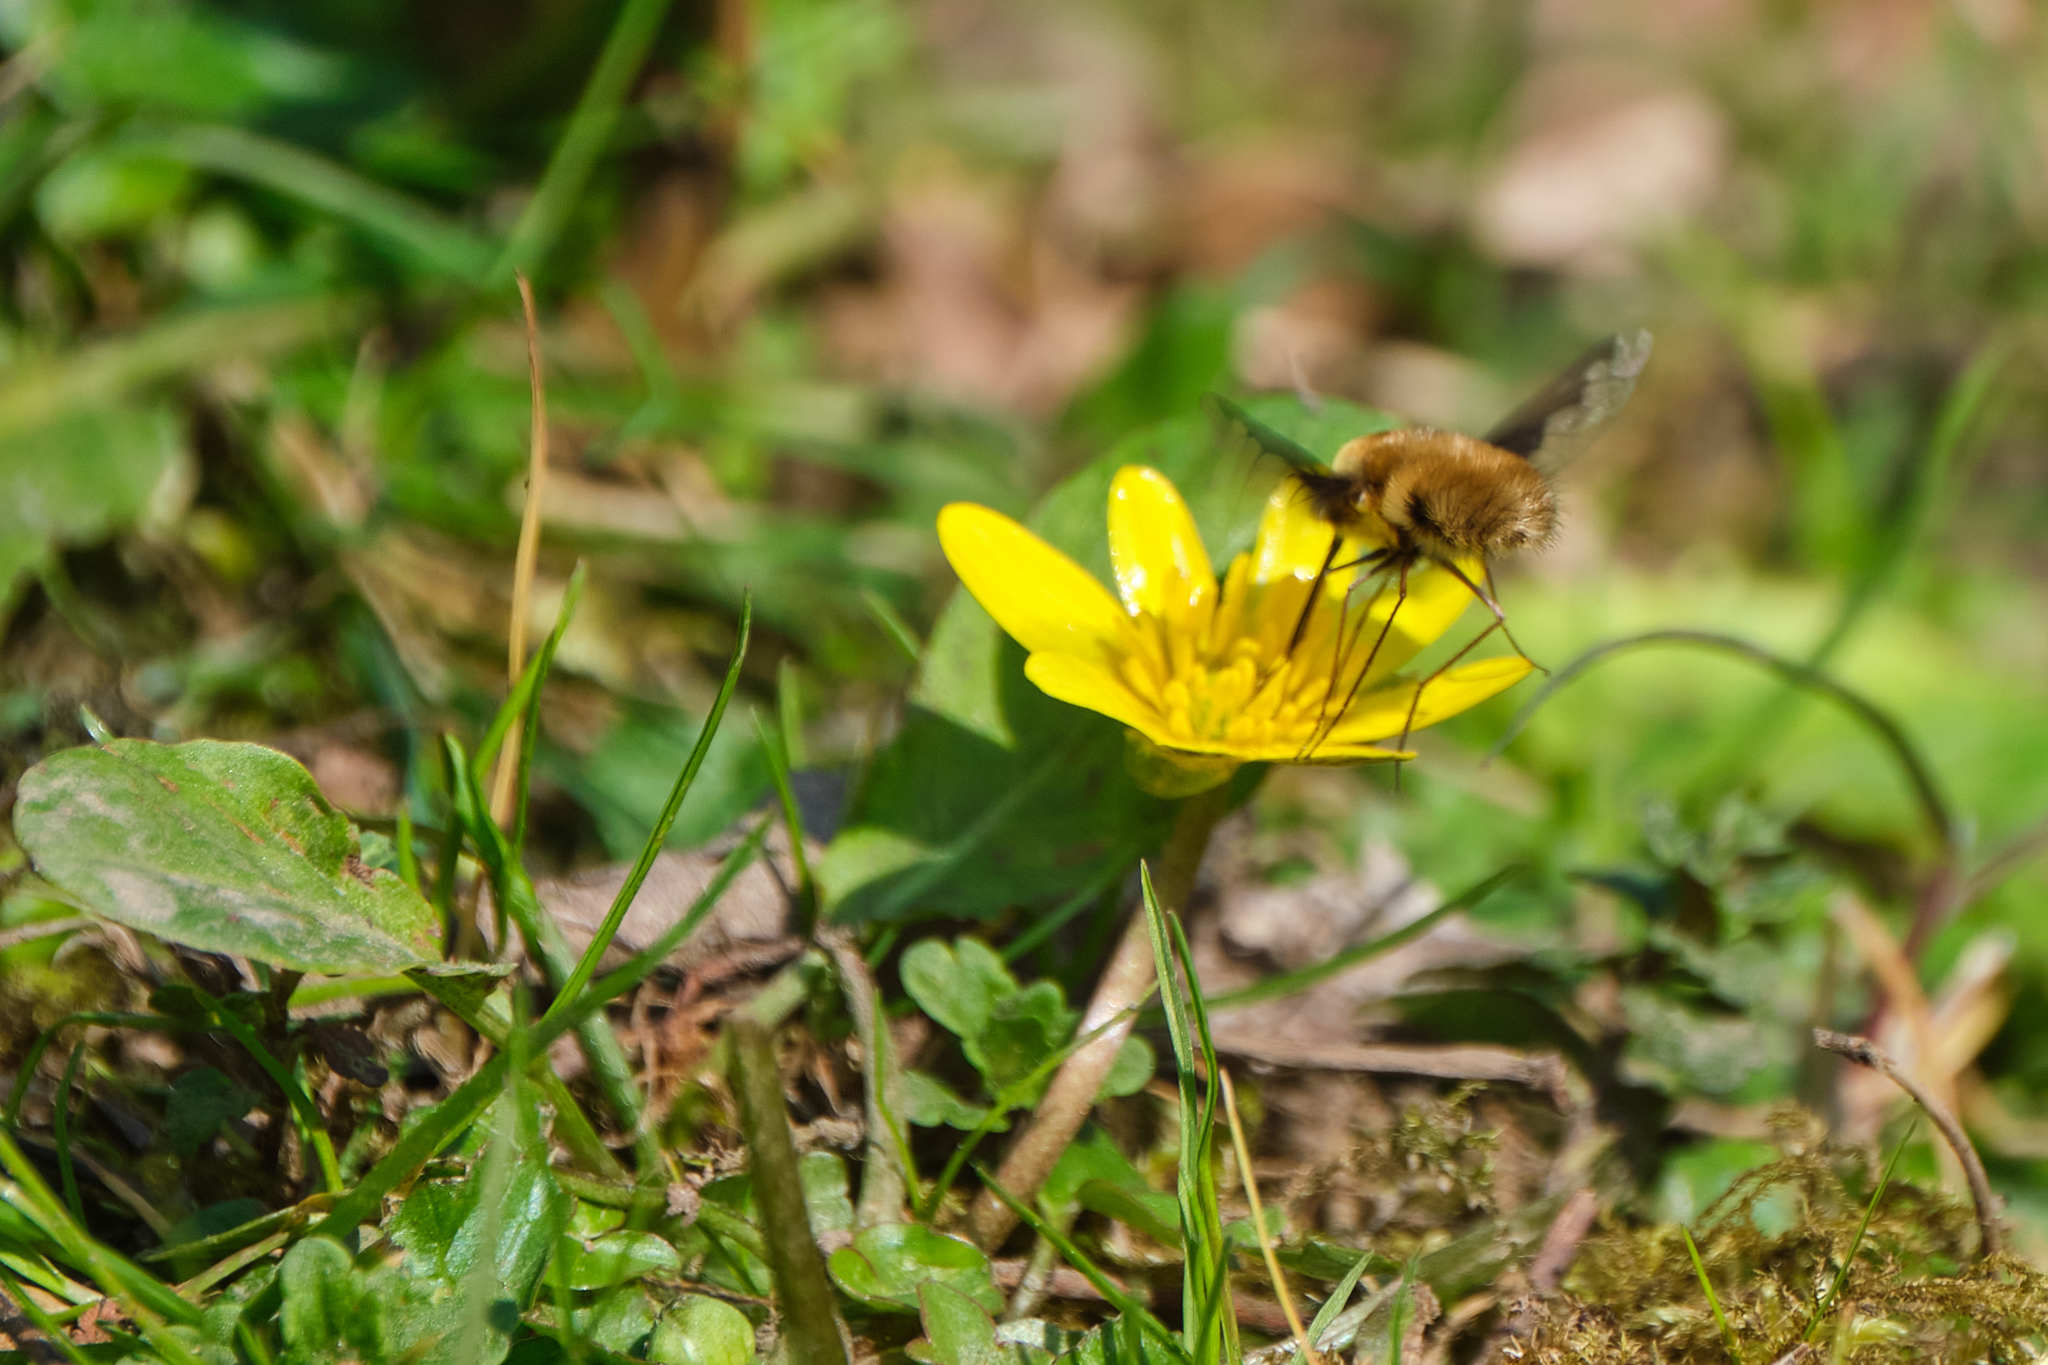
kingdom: Plantae
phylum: Tracheophyta
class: Magnoliopsida
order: Ranunculales
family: Ranunculaceae
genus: Ficaria
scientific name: Ficaria verna
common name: Lesser celandine
